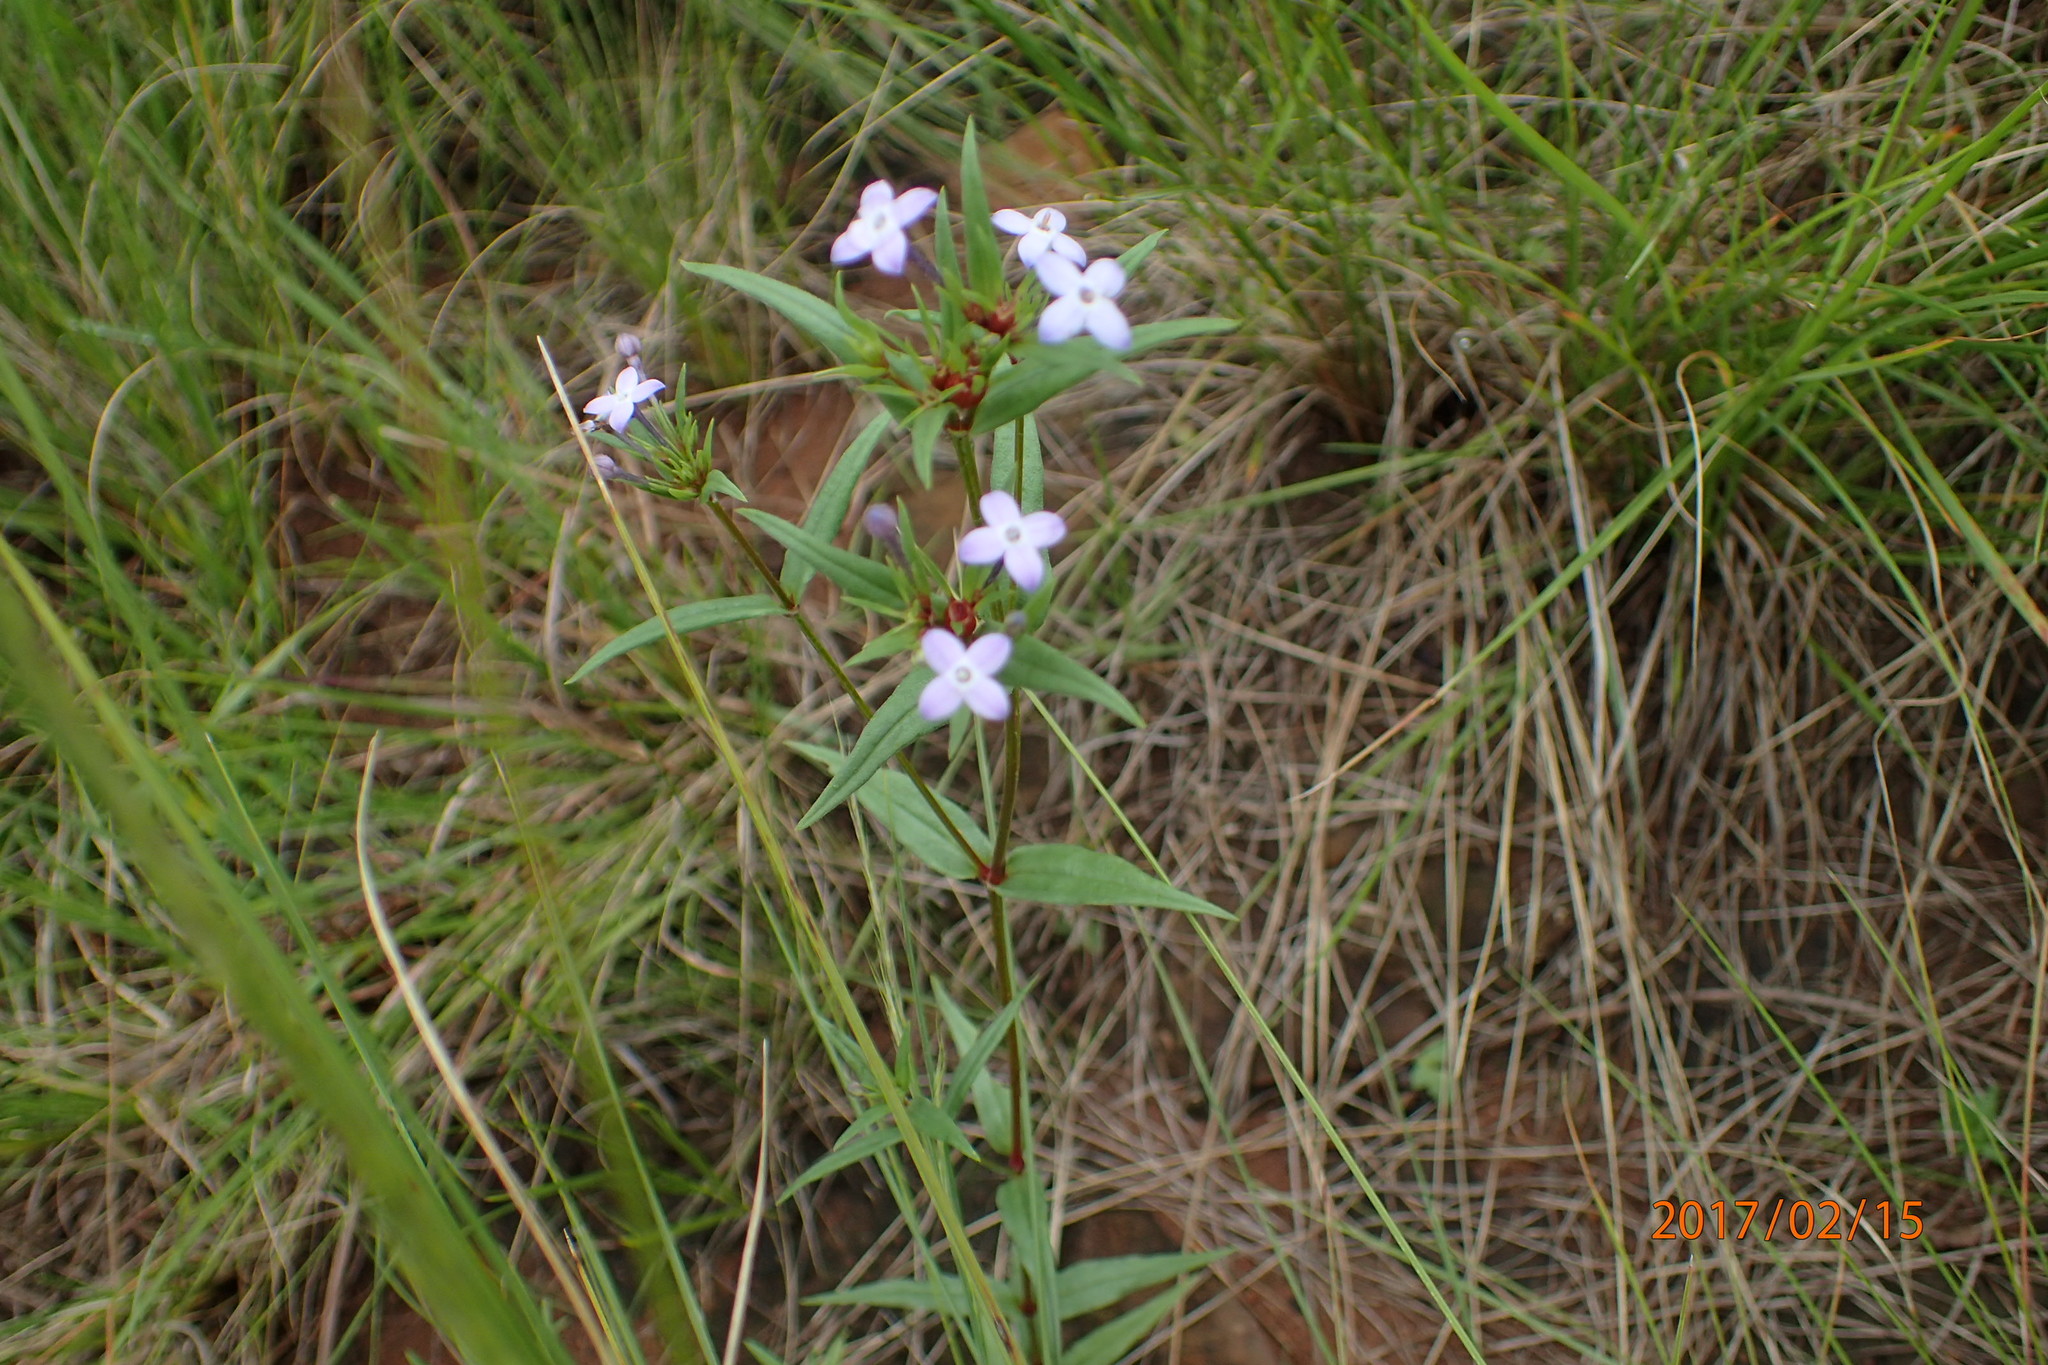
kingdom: Plantae
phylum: Tracheophyta
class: Magnoliopsida
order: Gentianales
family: Rubiaceae
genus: Conostomium
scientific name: Conostomium natalense
